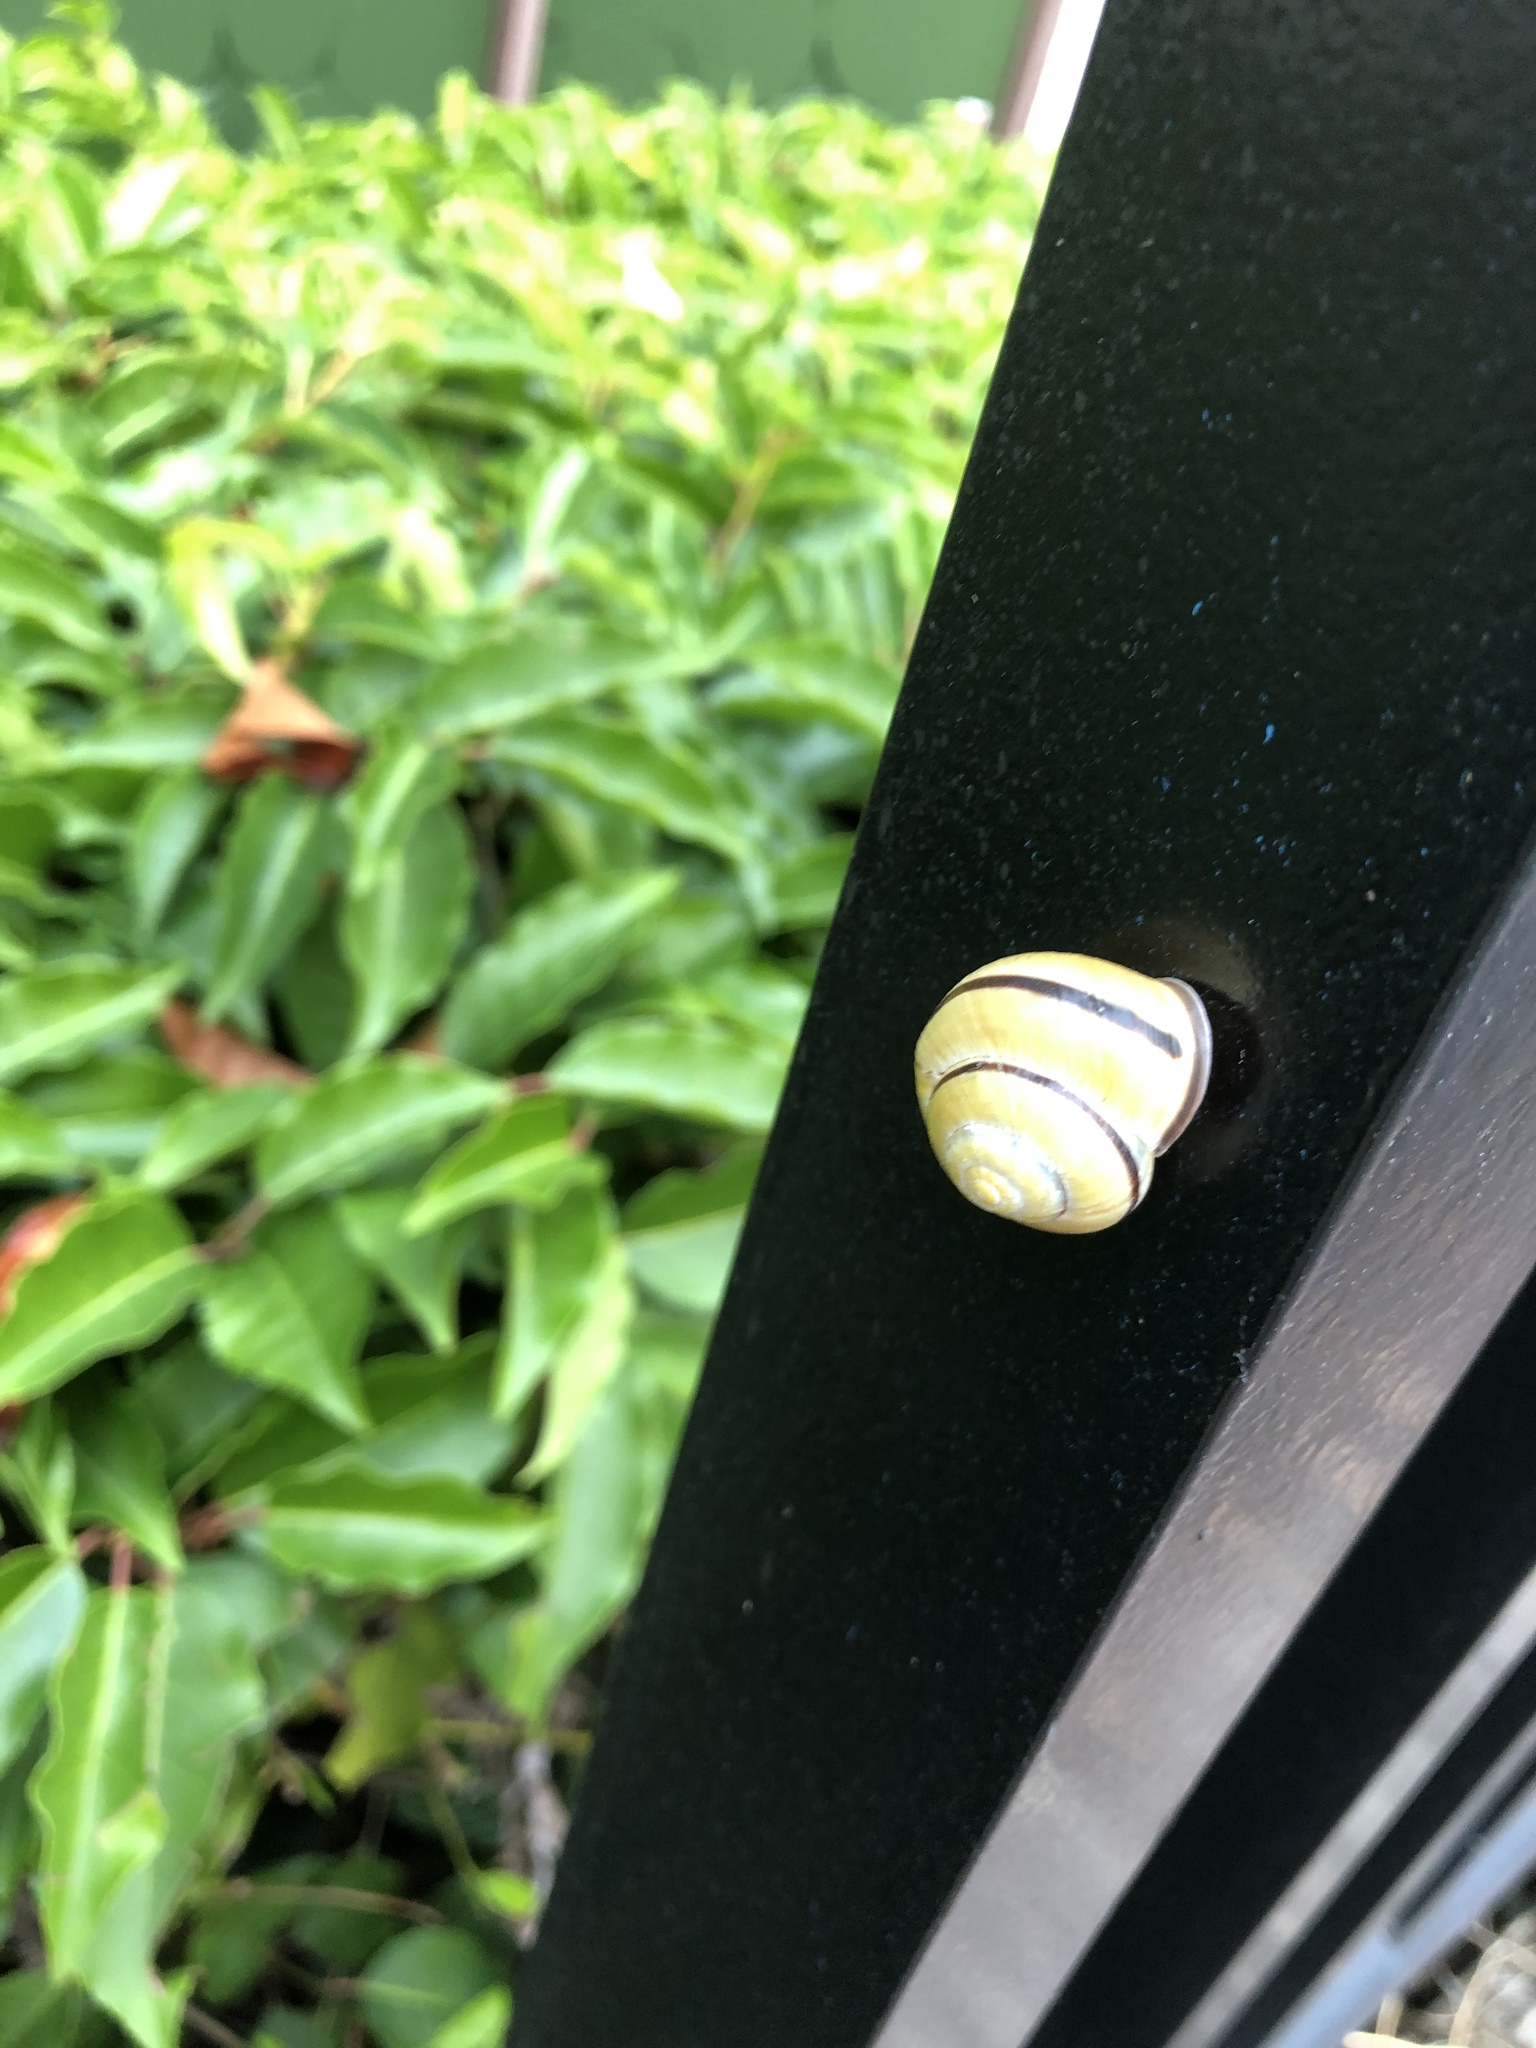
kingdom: Animalia
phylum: Mollusca
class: Gastropoda
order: Stylommatophora
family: Helicidae
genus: Cepaea
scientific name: Cepaea nemoralis
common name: Grovesnail
